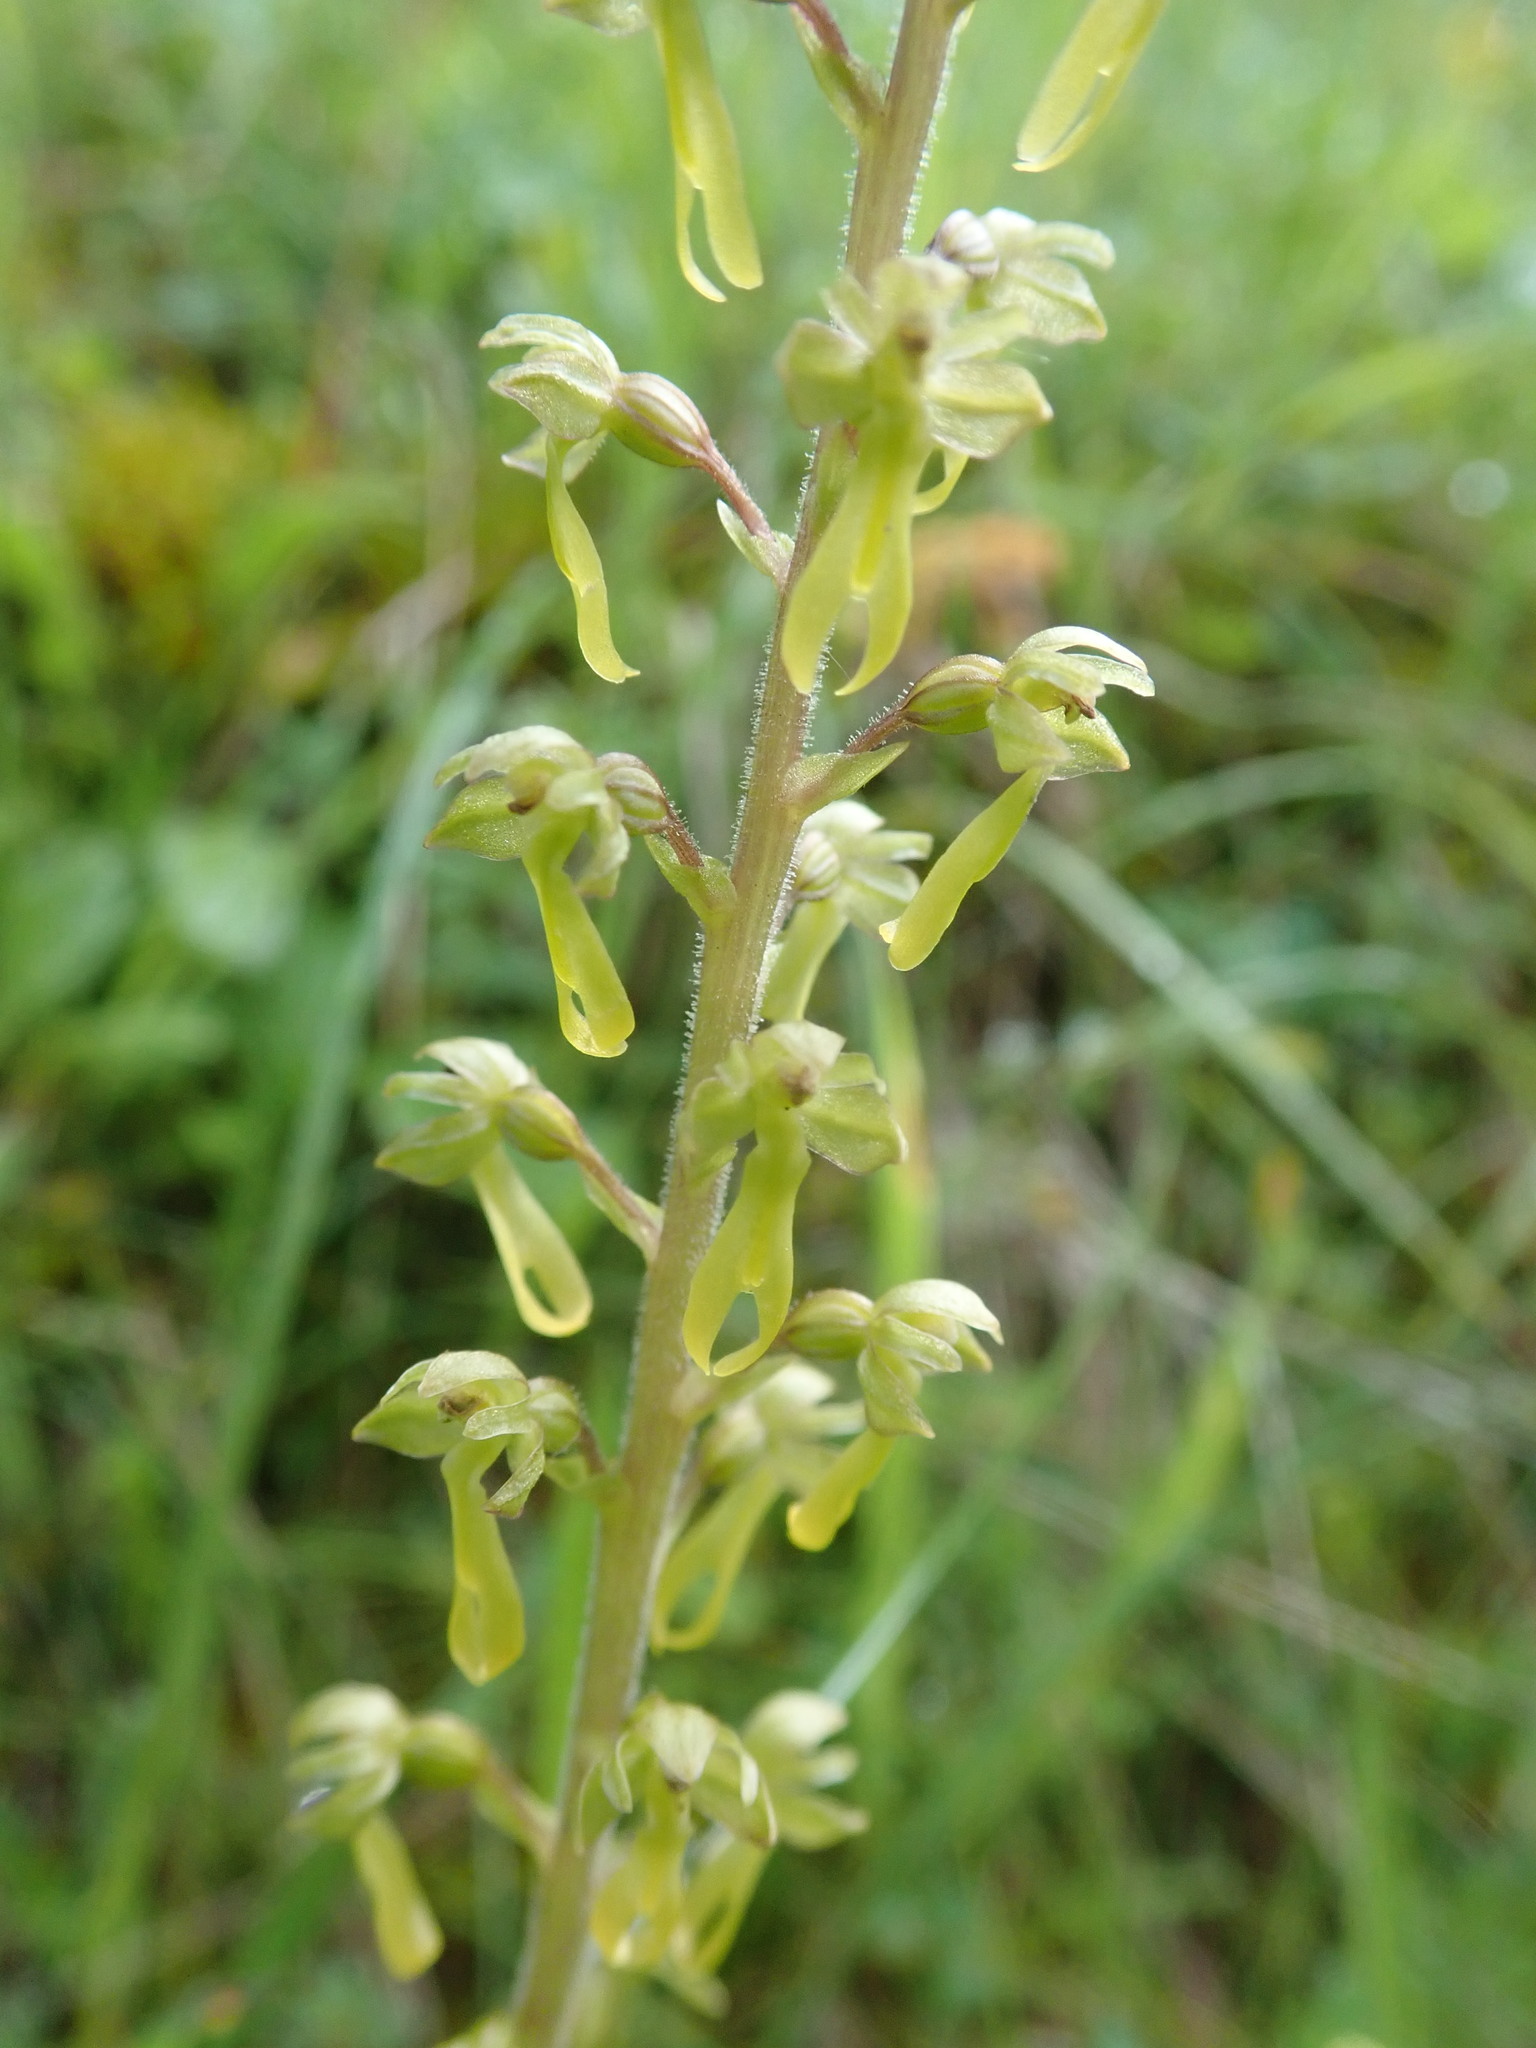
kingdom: Plantae
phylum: Tracheophyta
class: Liliopsida
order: Asparagales
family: Orchidaceae
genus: Neottia
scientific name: Neottia ovata
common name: Common twayblade
